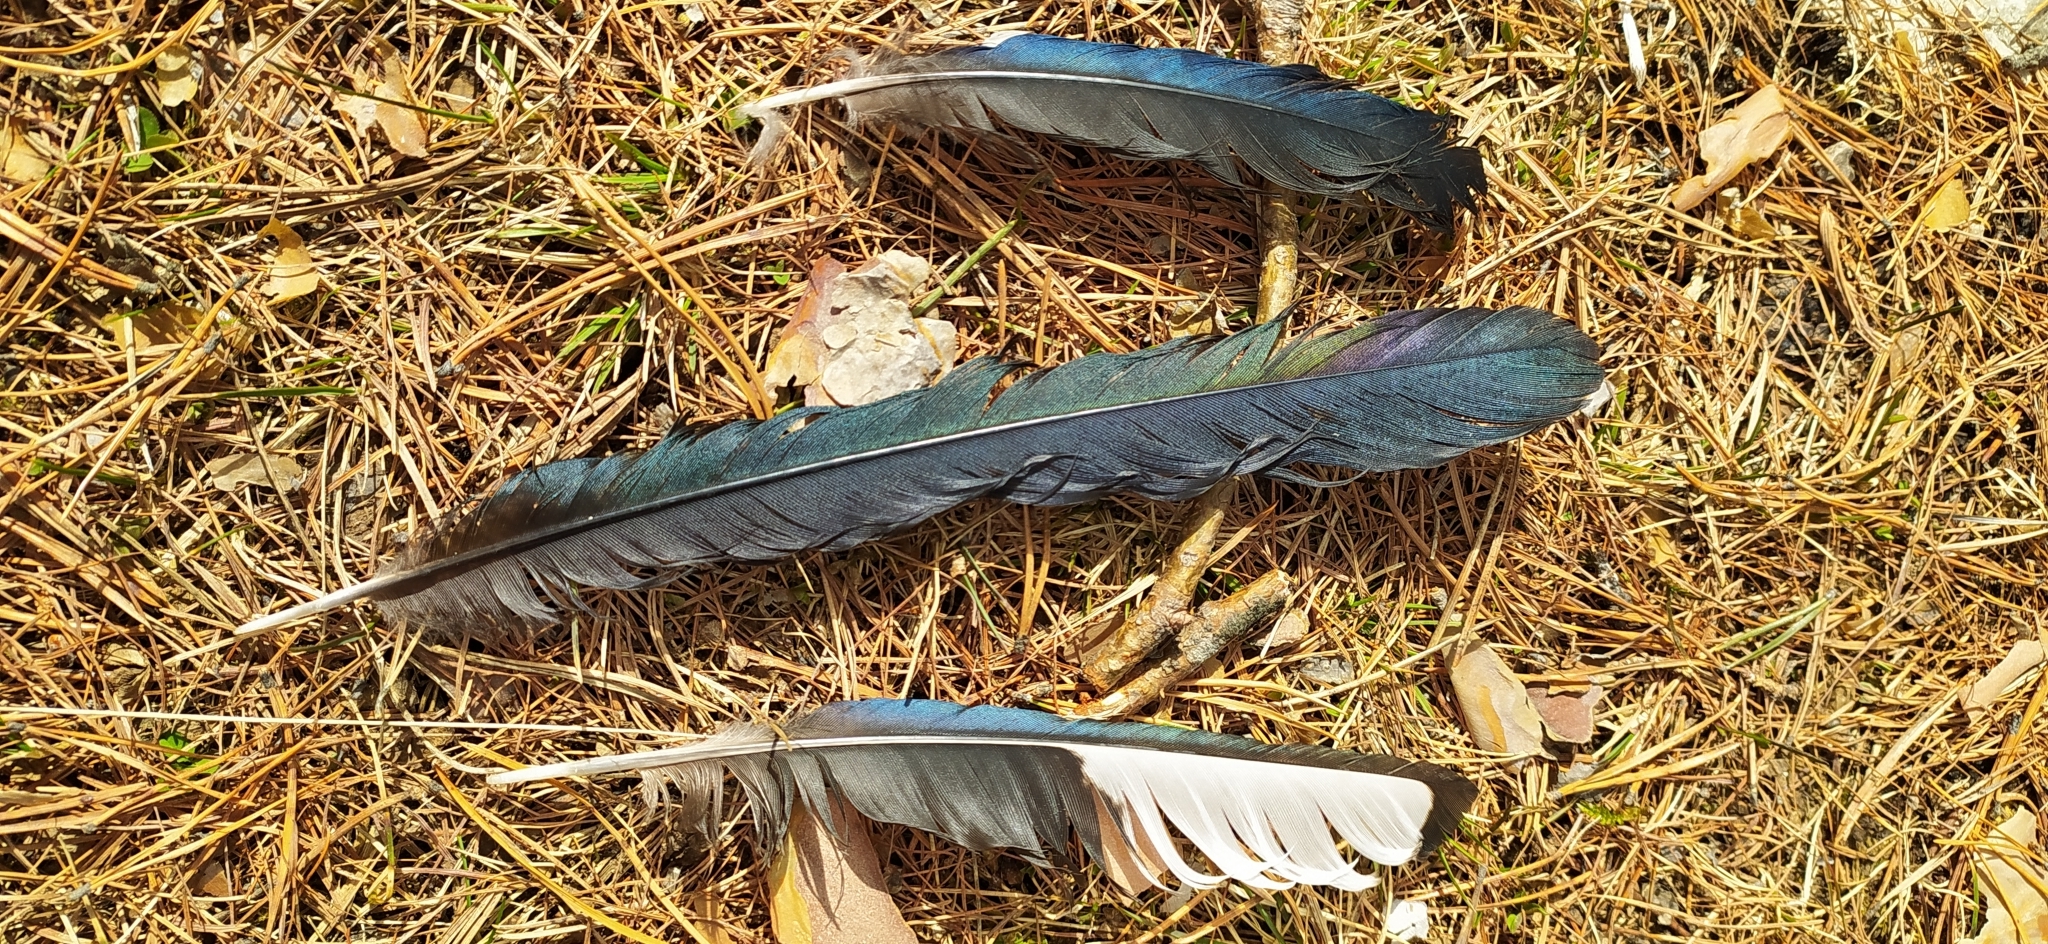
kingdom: Animalia
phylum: Chordata
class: Aves
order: Passeriformes
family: Corvidae
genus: Pica
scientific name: Pica pica
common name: Eurasian magpie
